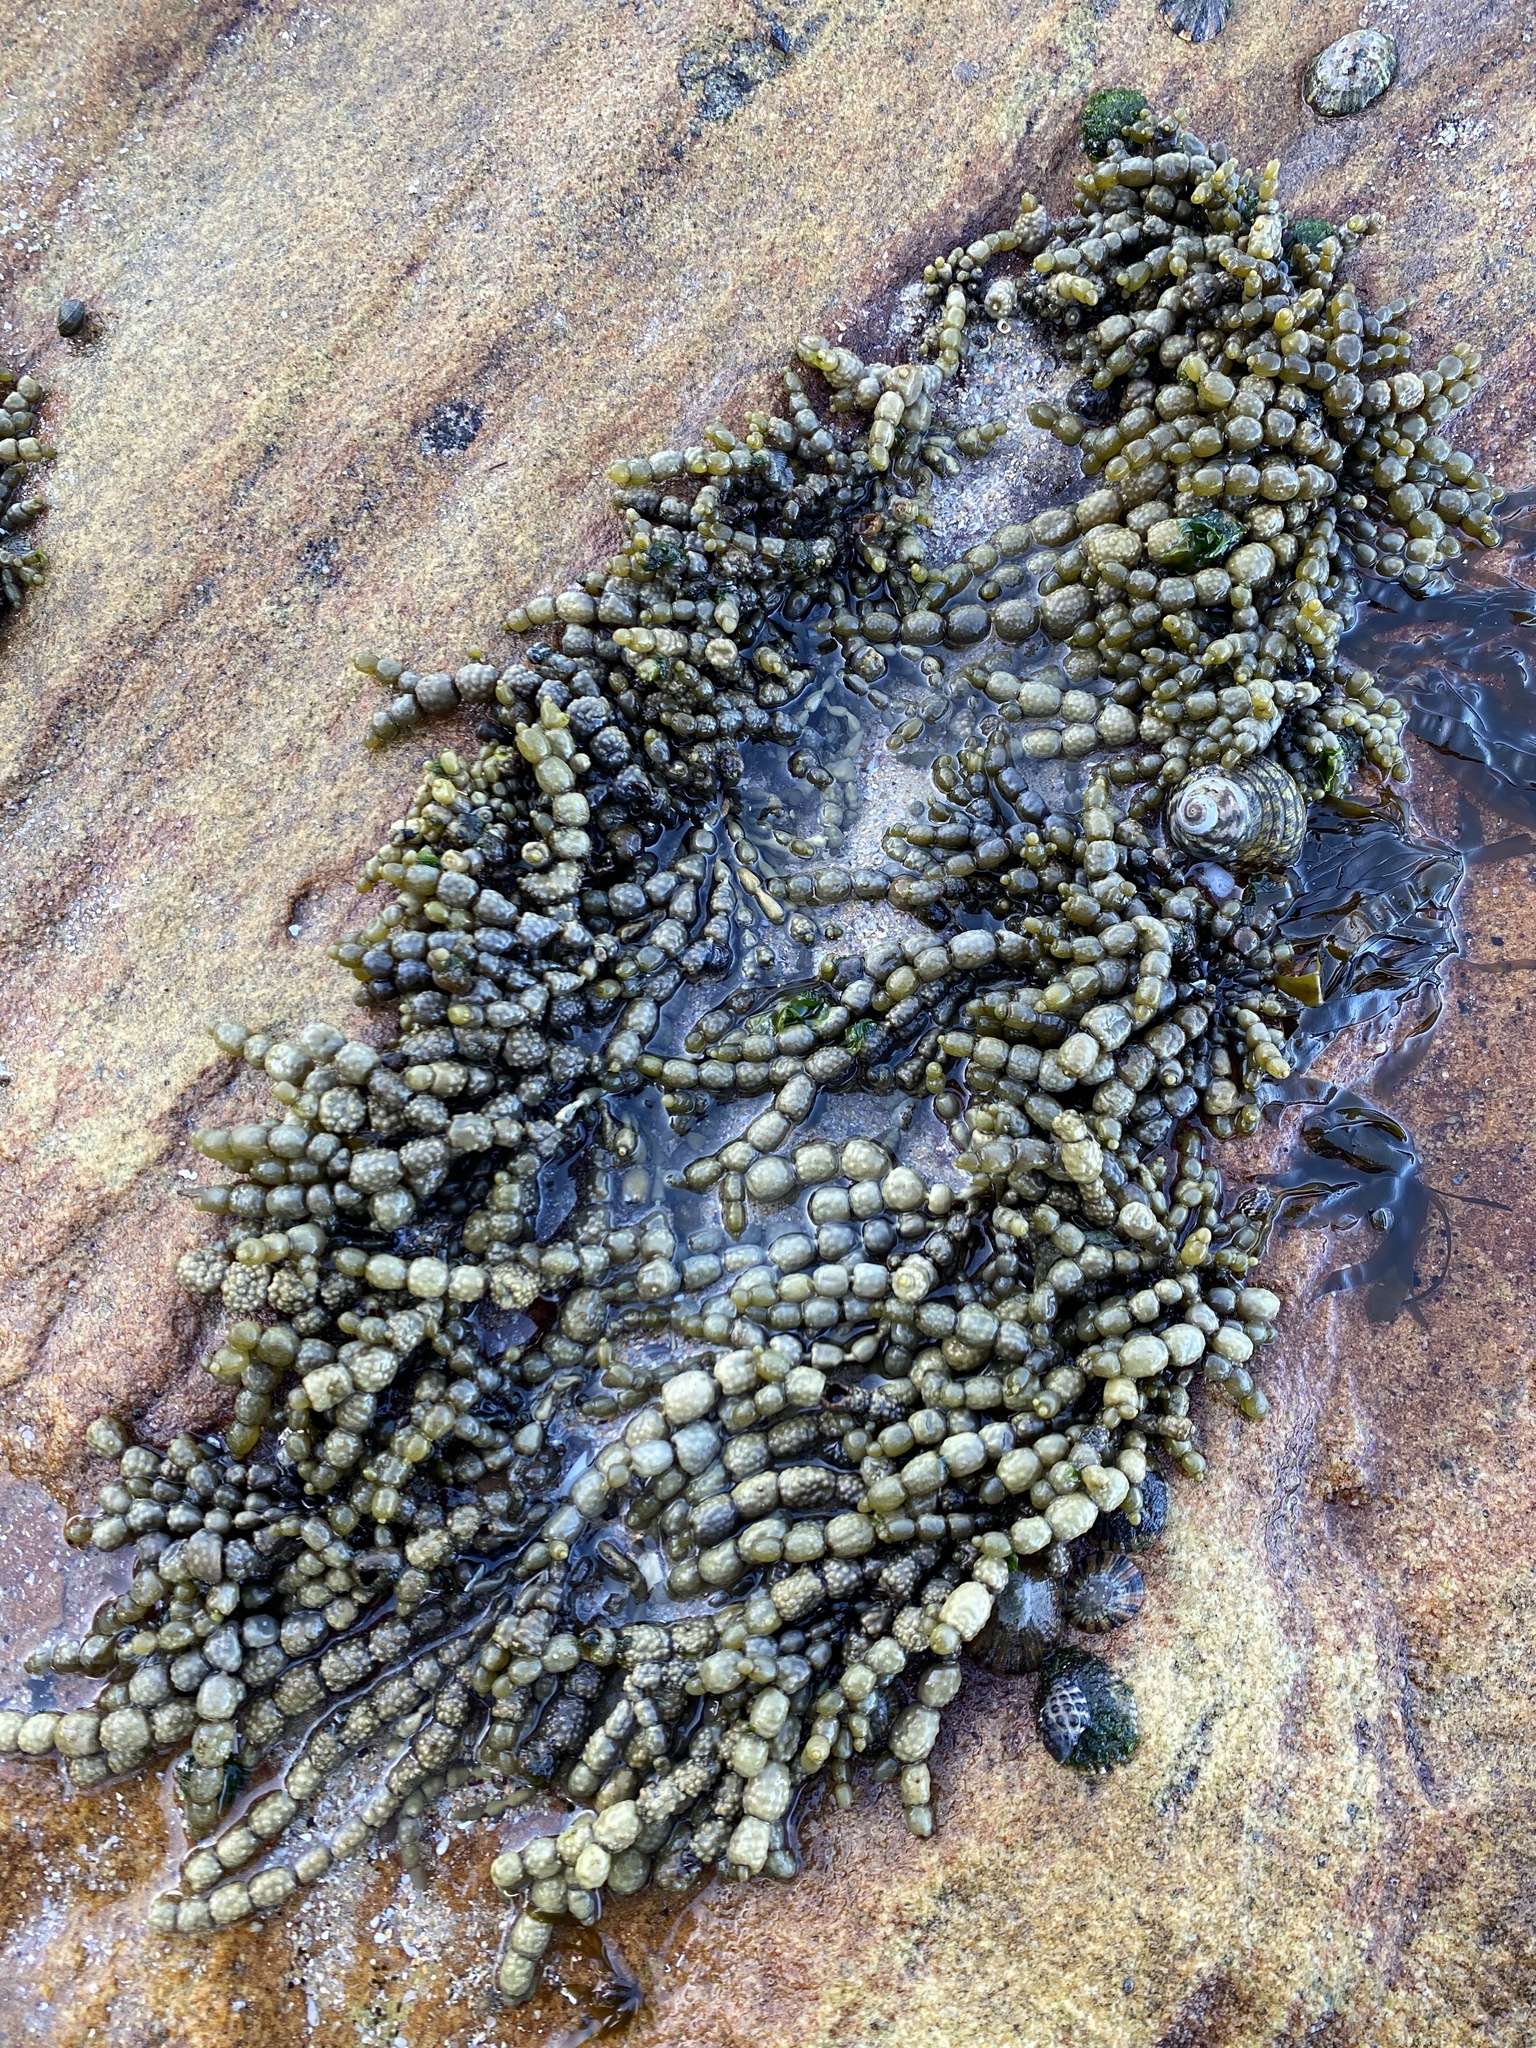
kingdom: Chromista
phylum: Ochrophyta
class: Phaeophyceae
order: Fucales
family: Hormosiraceae
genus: Hormosira
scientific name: Hormosira banksii
